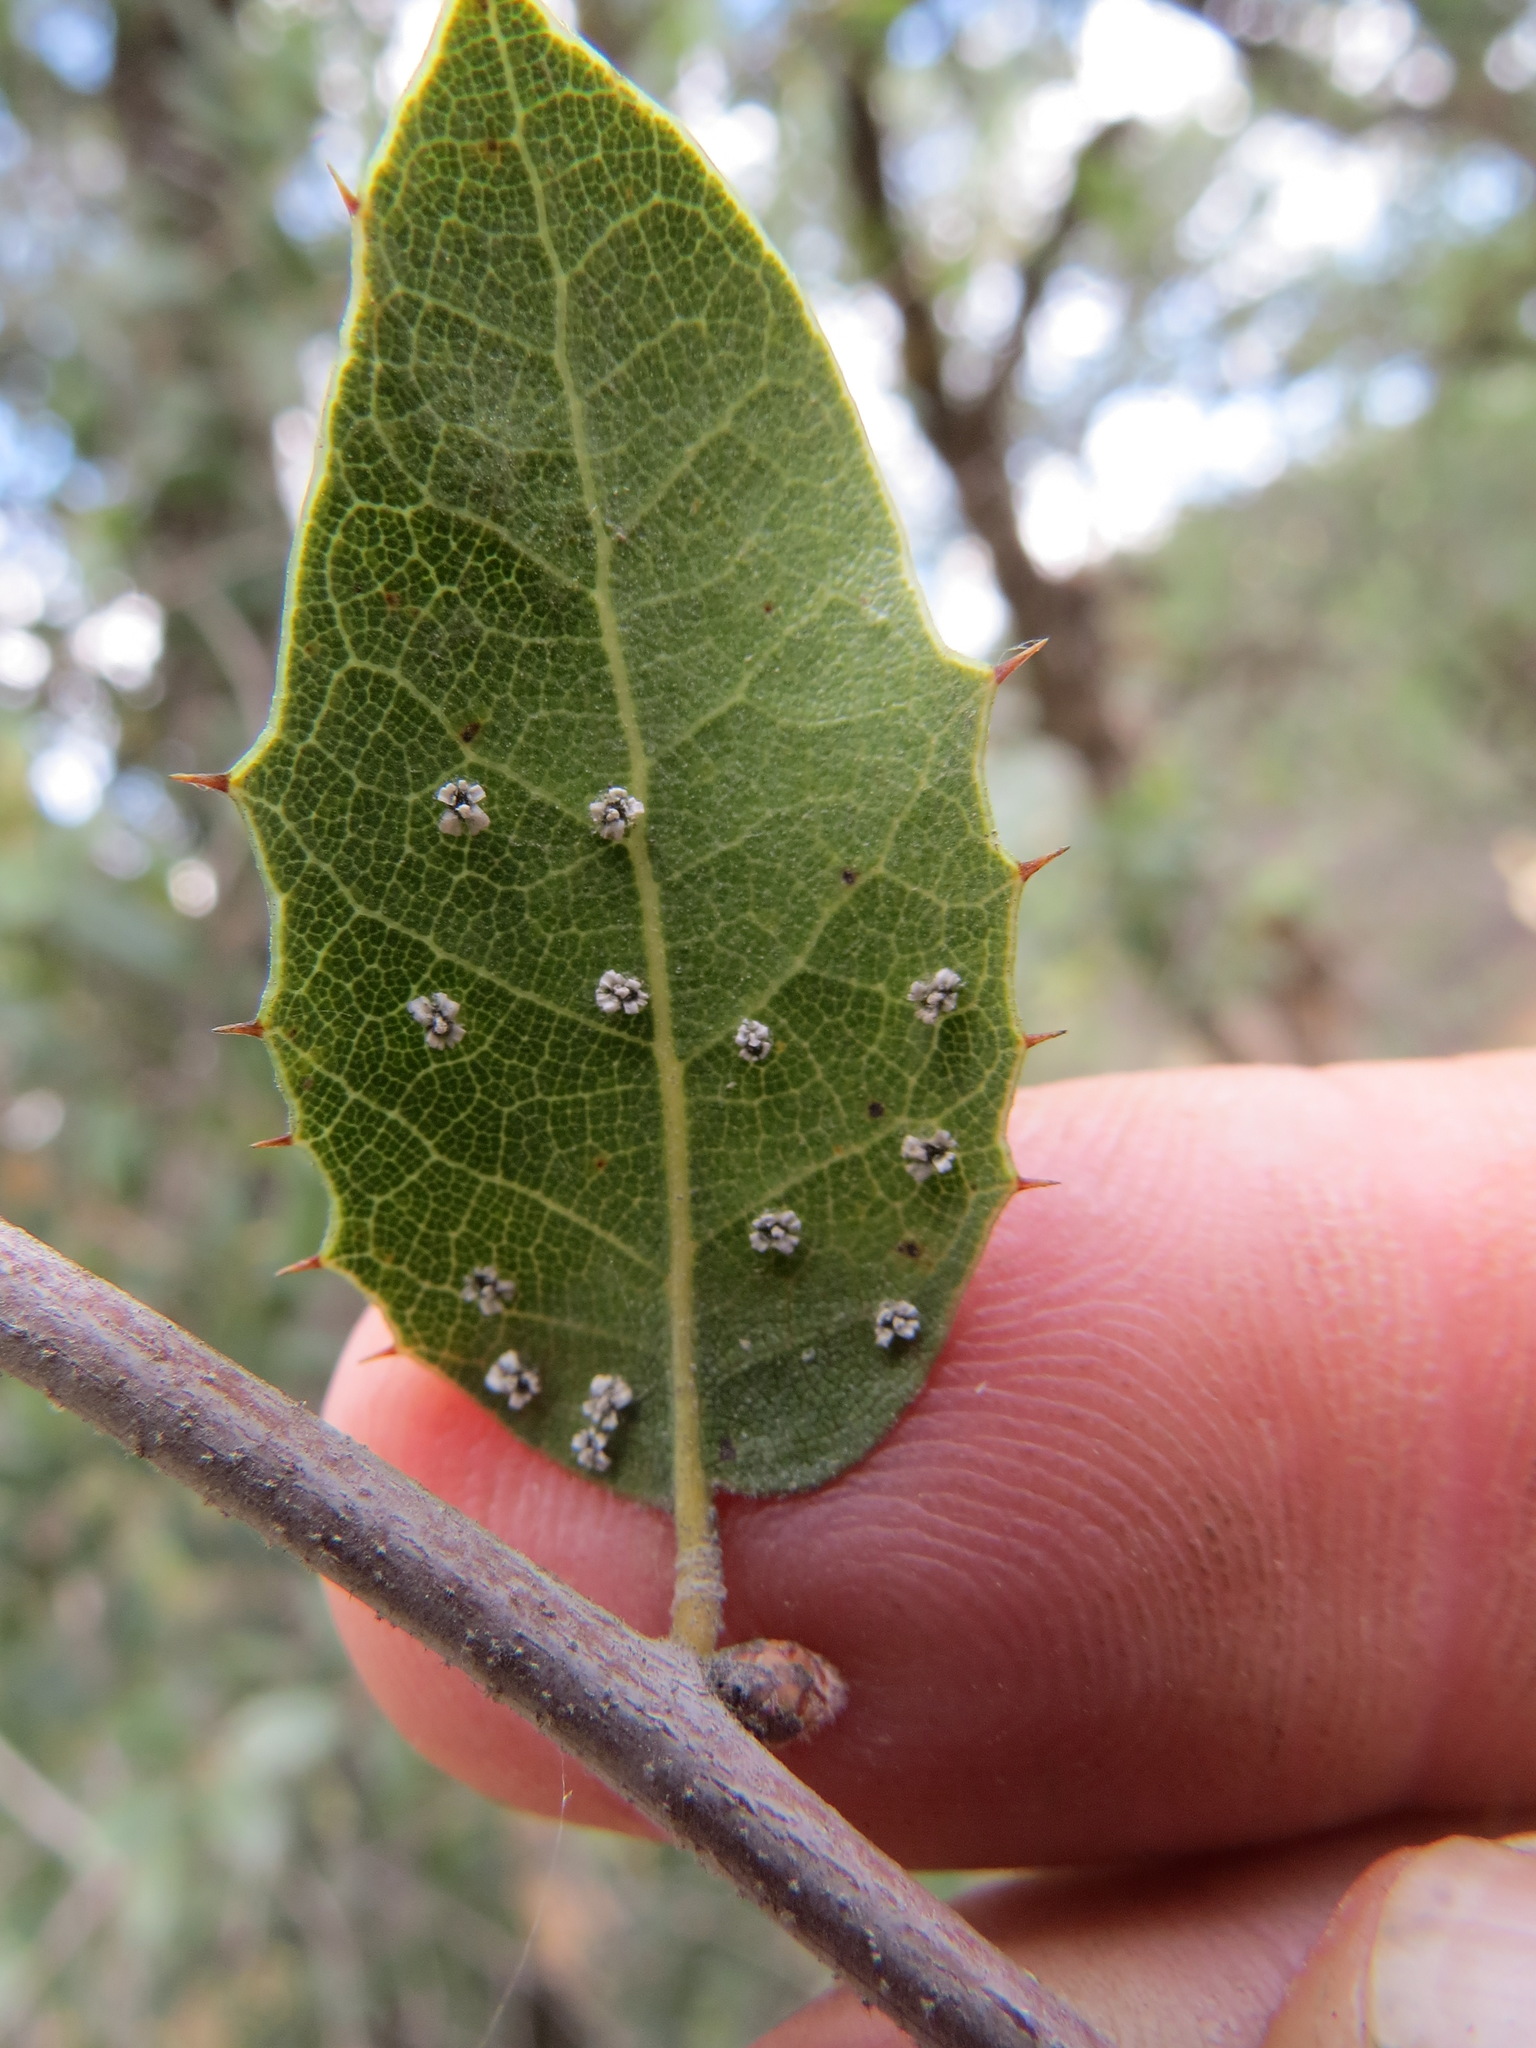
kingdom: Animalia
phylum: Arthropoda
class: Insecta
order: Hemiptera
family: Aleyrodidae
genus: Aleuroplatus
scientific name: Aleuroplatus coronata
